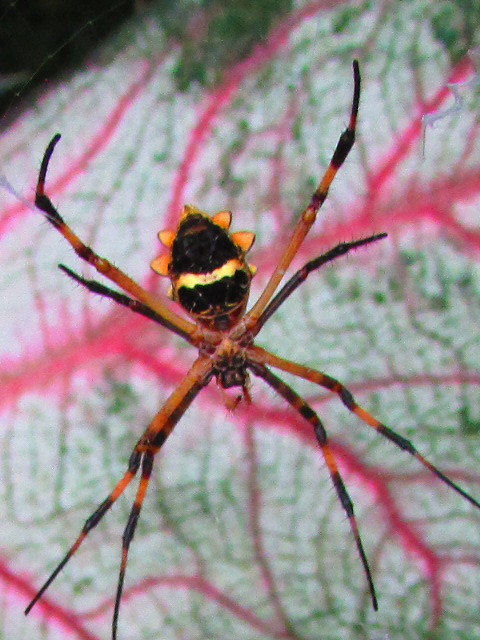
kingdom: Animalia
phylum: Arthropoda
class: Arachnida
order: Araneae
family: Araneidae
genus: Argiope
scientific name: Argiope argentata
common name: Orb weavers
